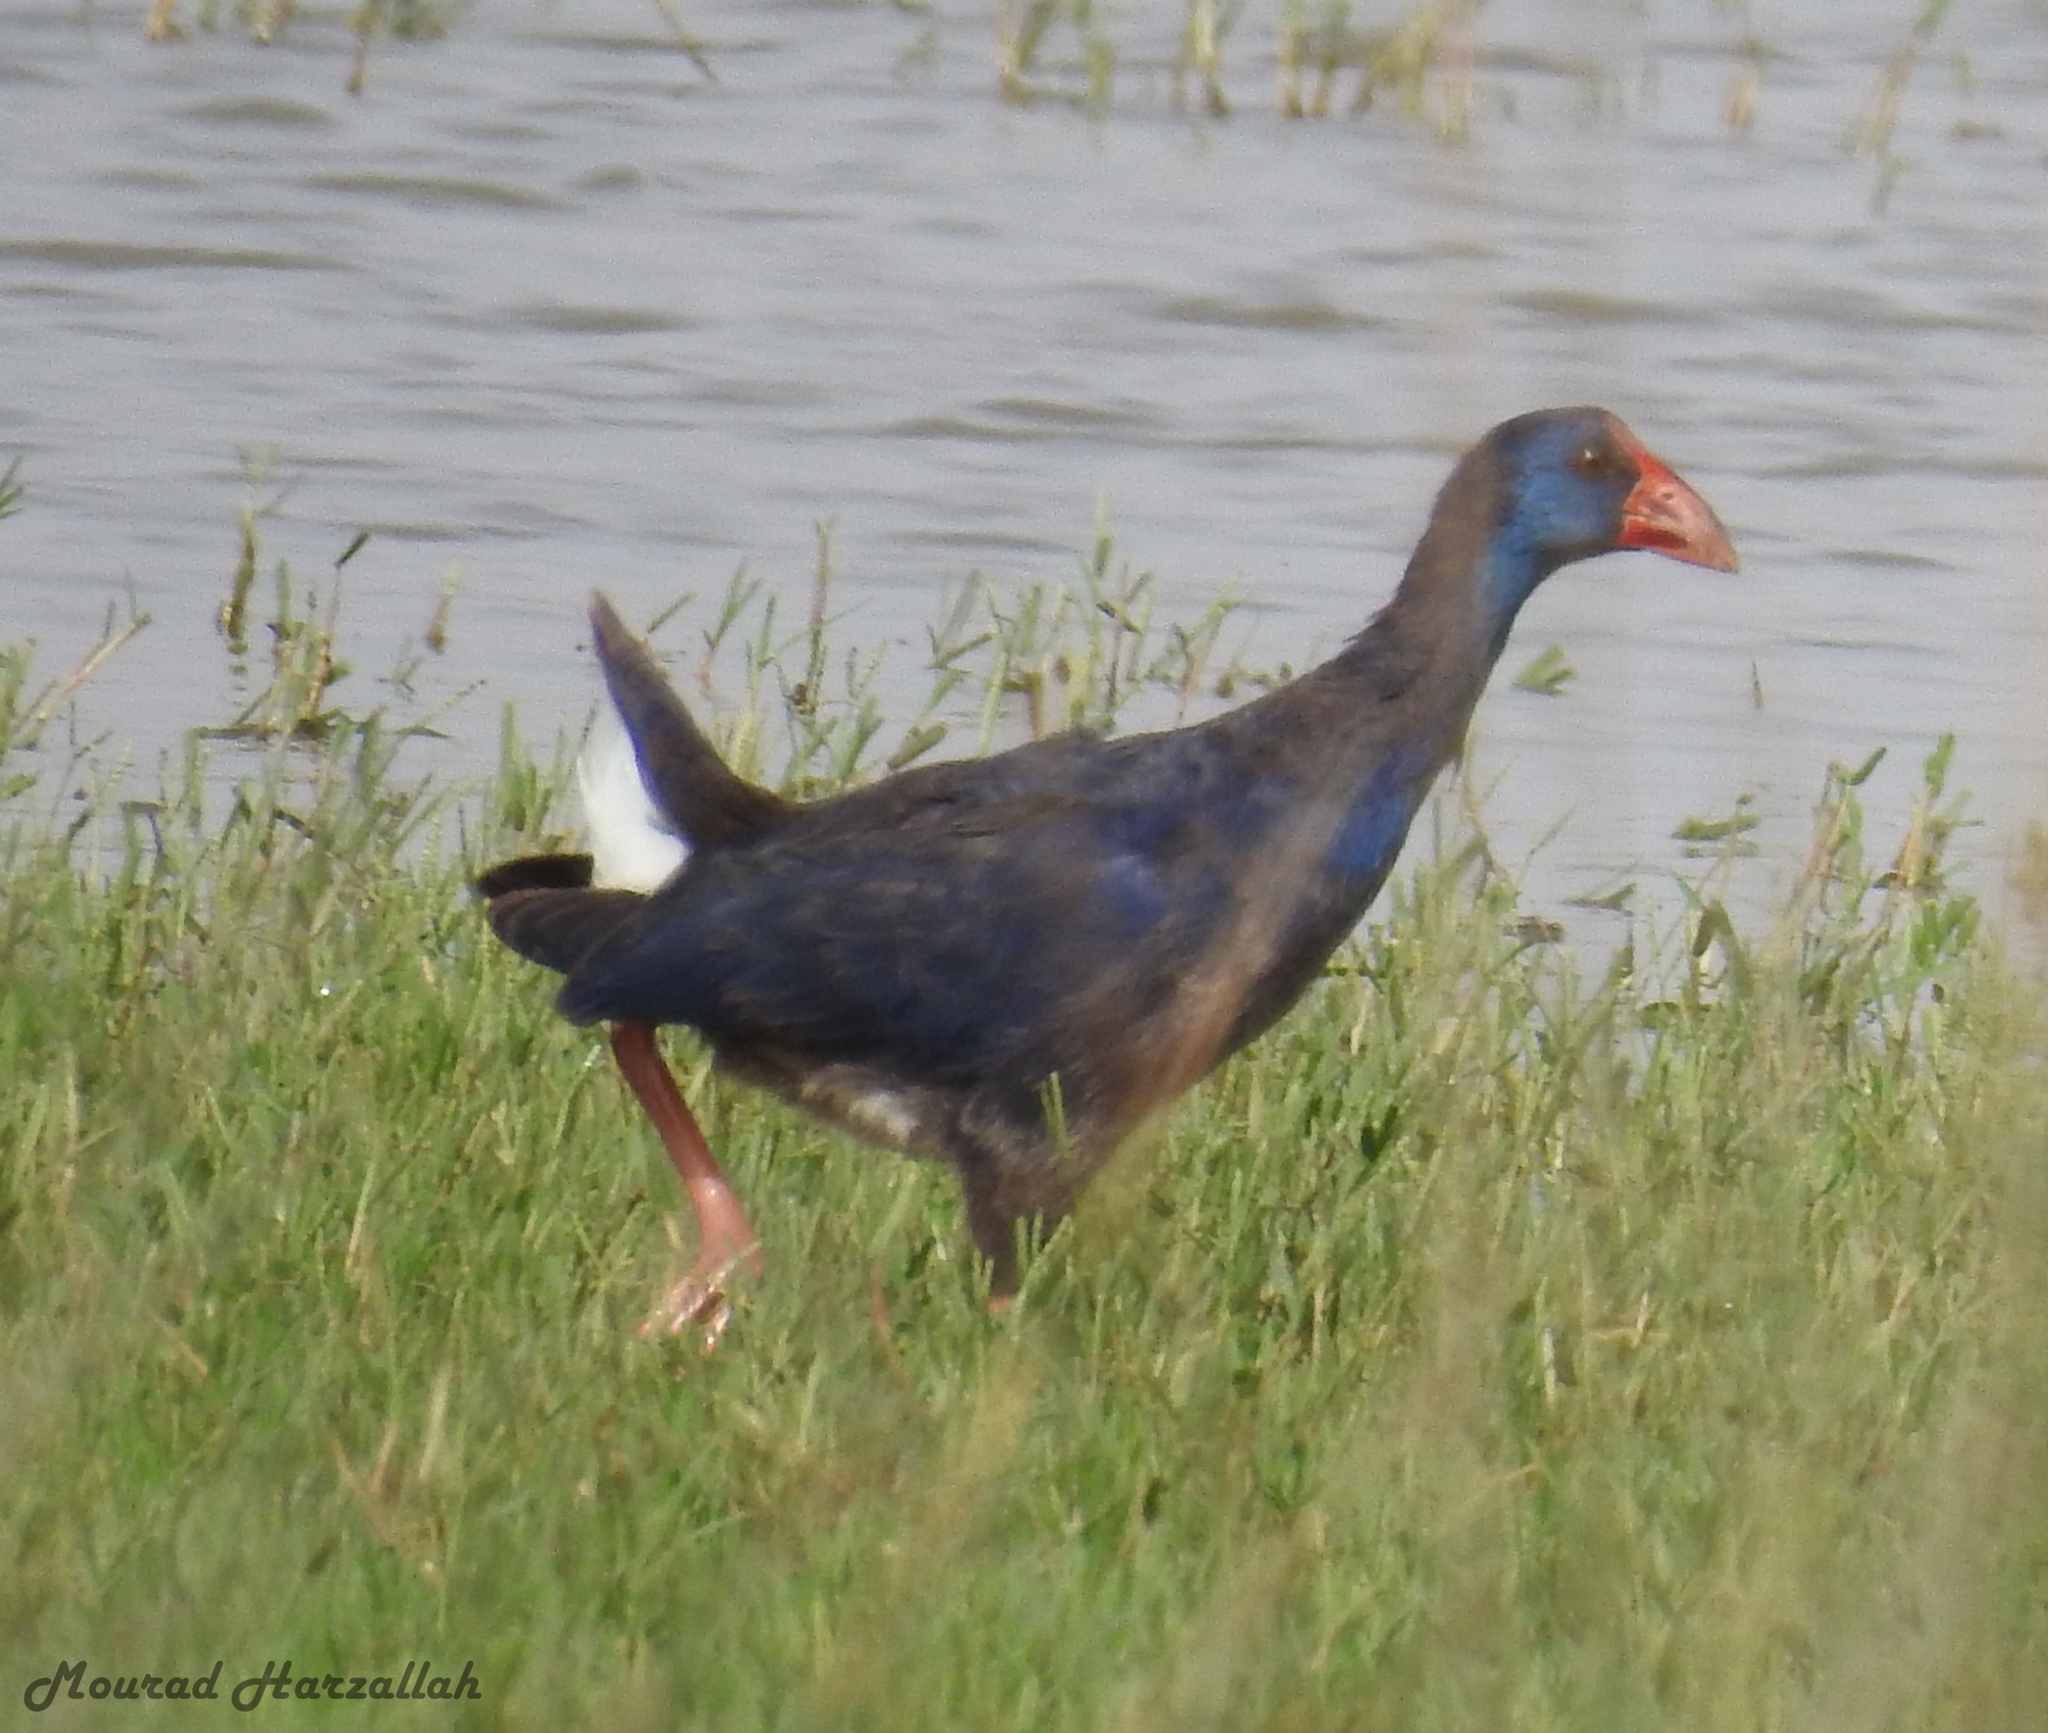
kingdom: Animalia
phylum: Chordata
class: Aves
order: Gruiformes
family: Rallidae
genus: Porphyrio
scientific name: Porphyrio porphyrio
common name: Purple swamphen
